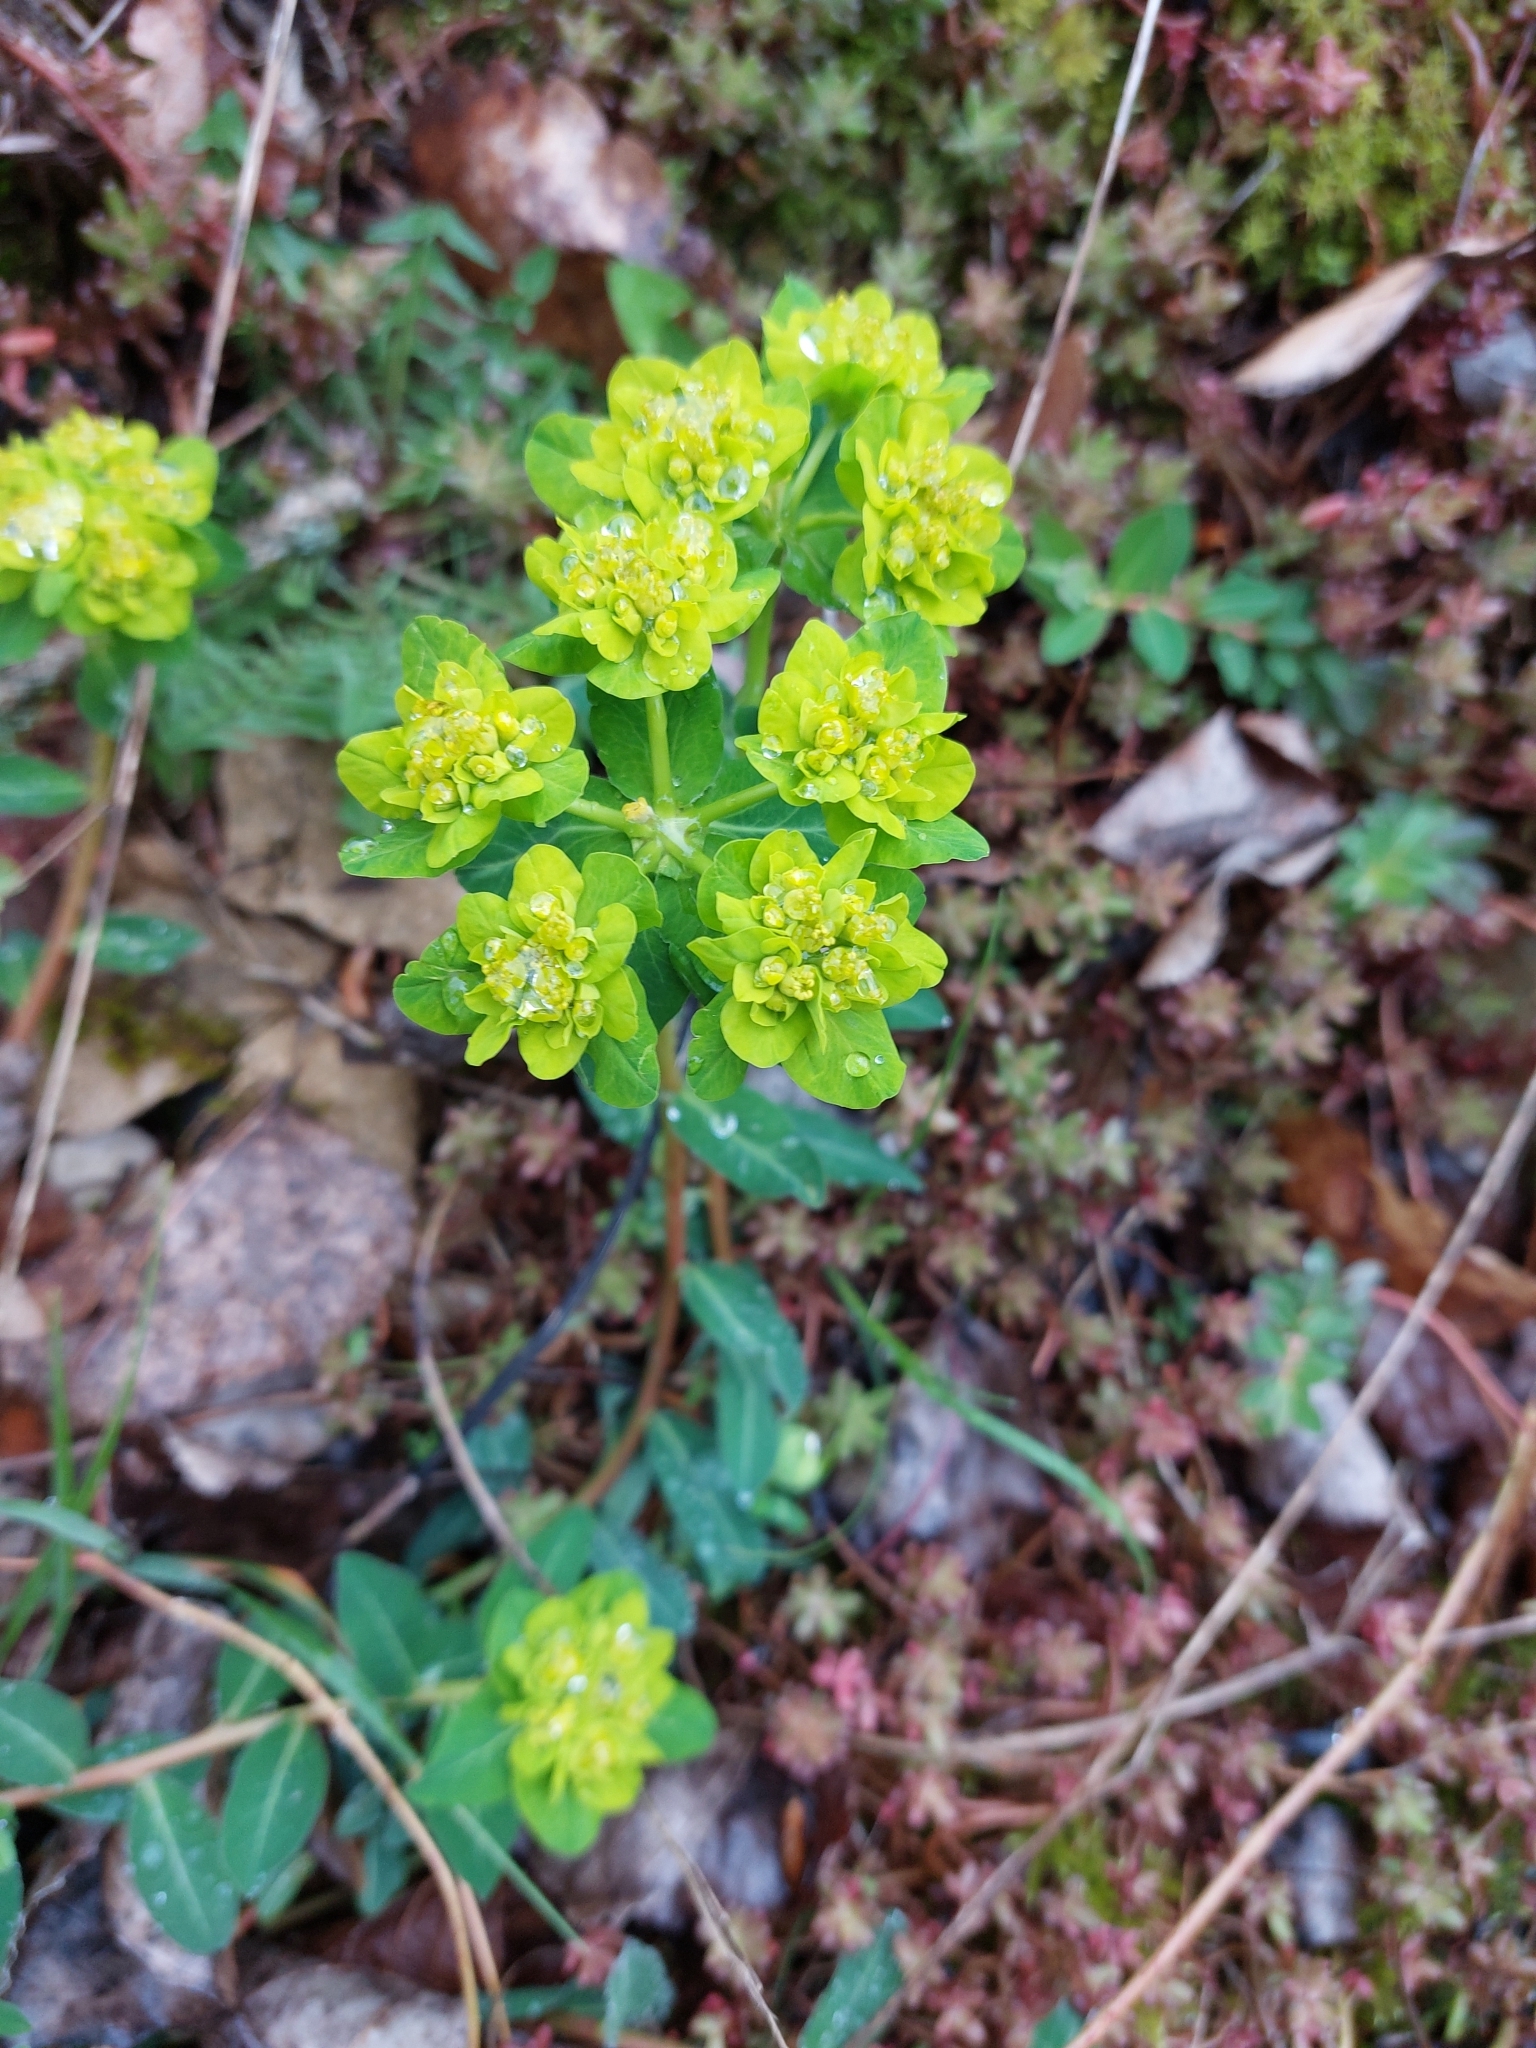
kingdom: Plantae
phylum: Tracheophyta
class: Magnoliopsida
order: Malpighiales
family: Euphorbiaceae
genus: Euphorbia
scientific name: Euphorbia helioscopia
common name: Sun spurge
